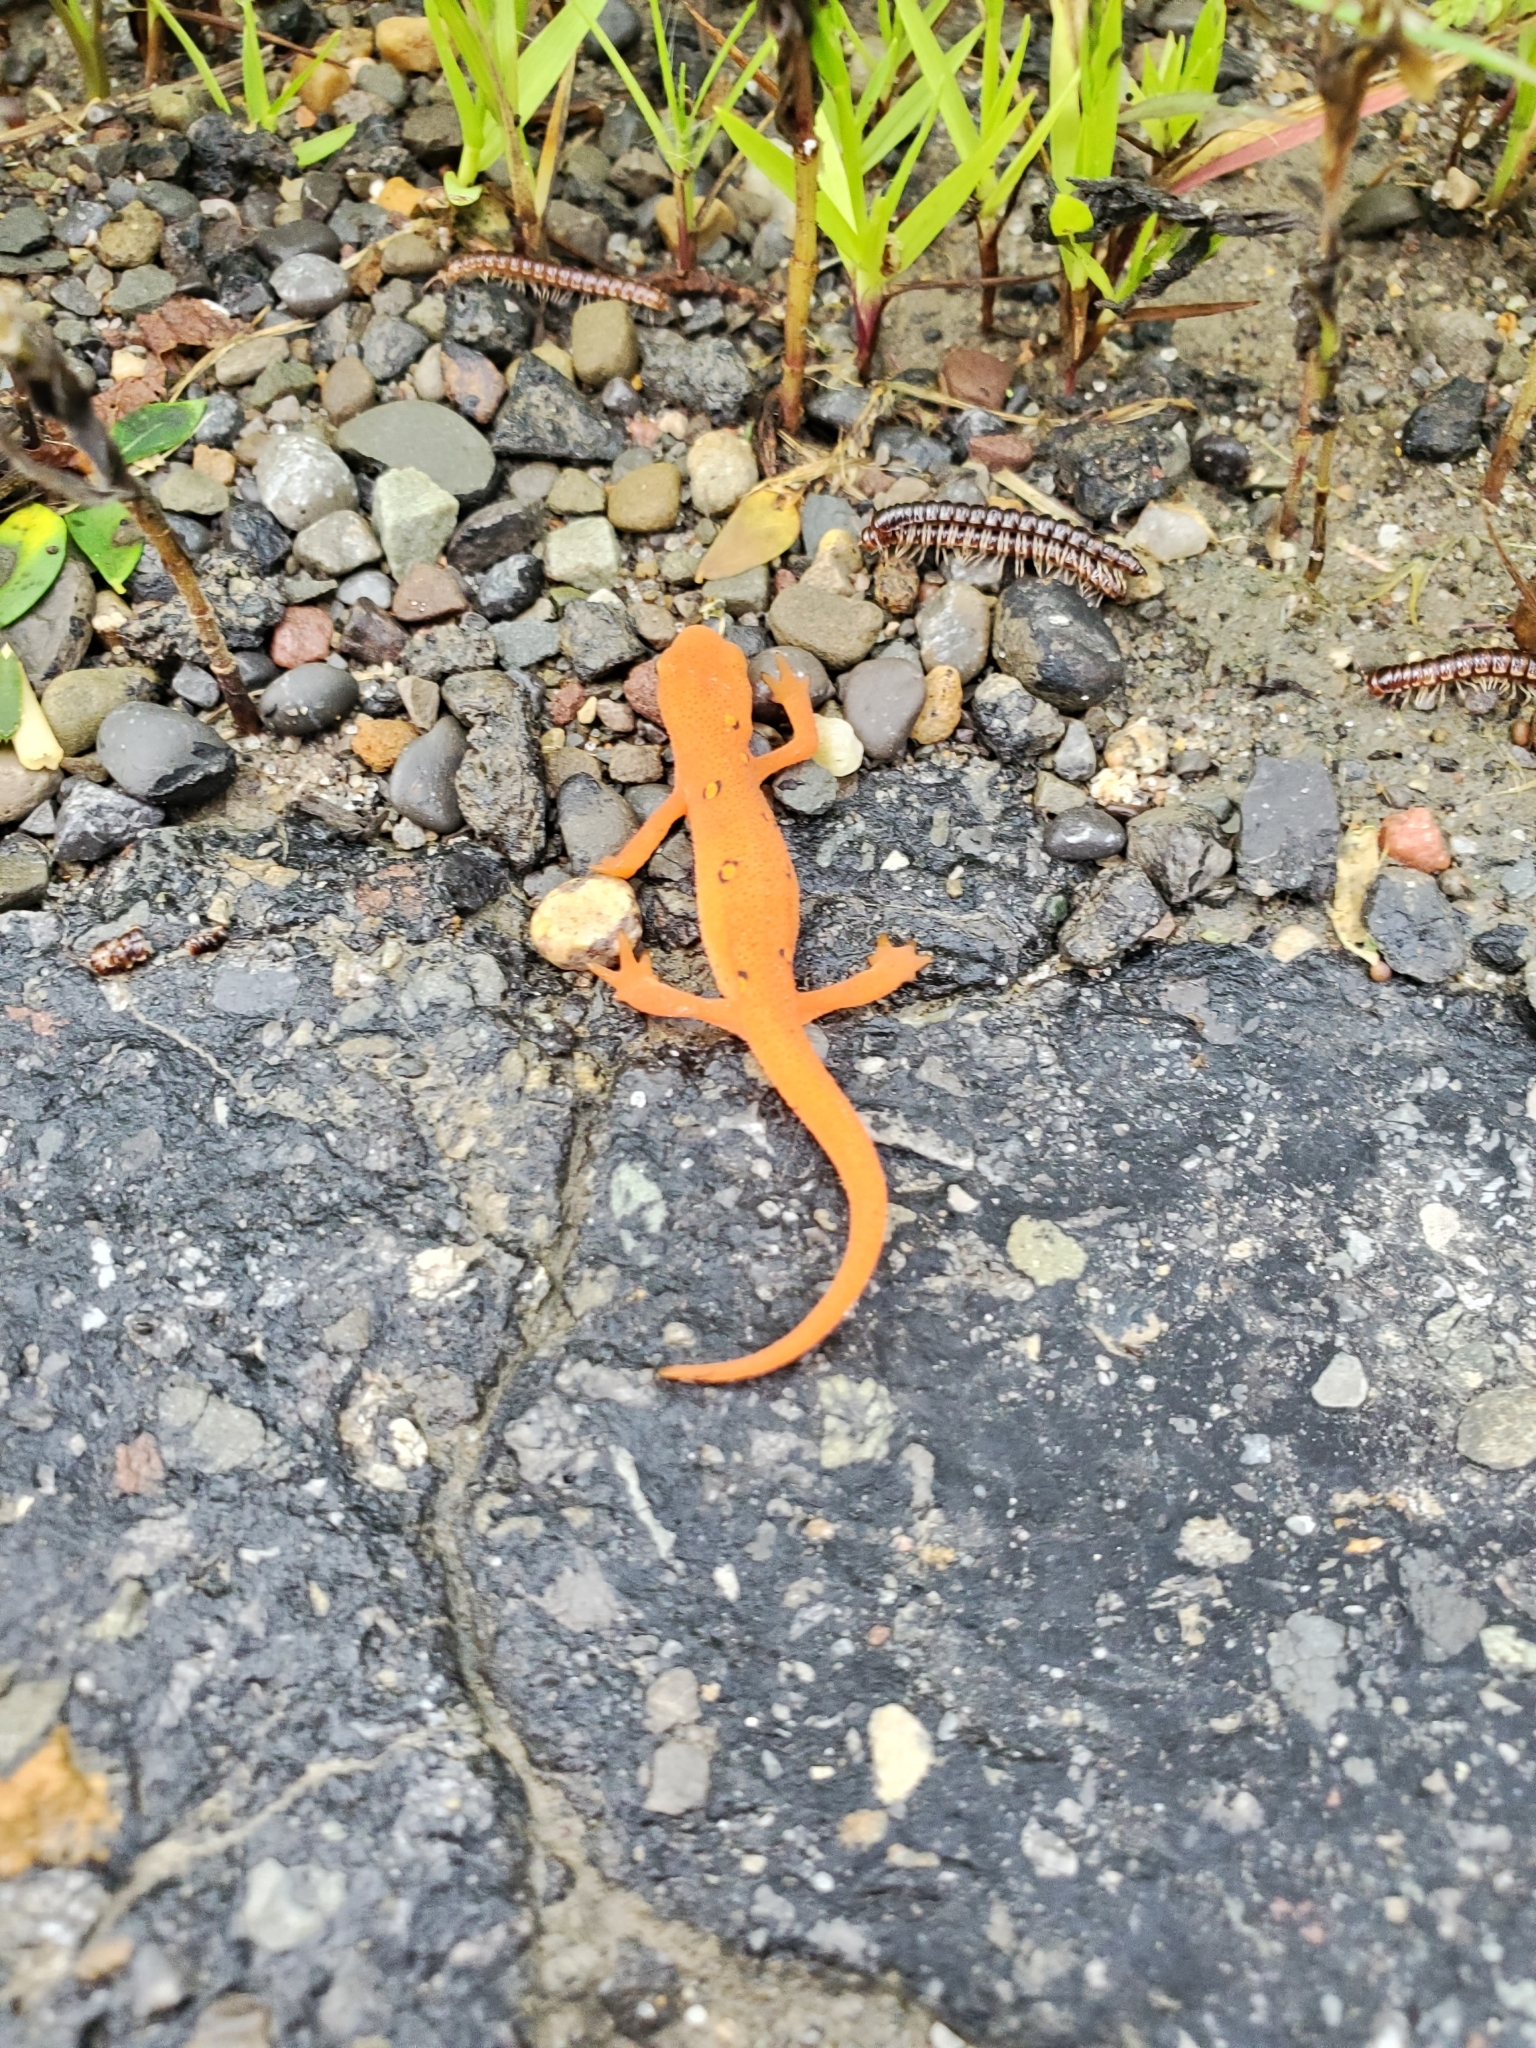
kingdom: Animalia
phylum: Chordata
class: Amphibia
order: Caudata
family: Salamandridae
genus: Notophthalmus
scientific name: Notophthalmus viridescens
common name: Eastern newt
